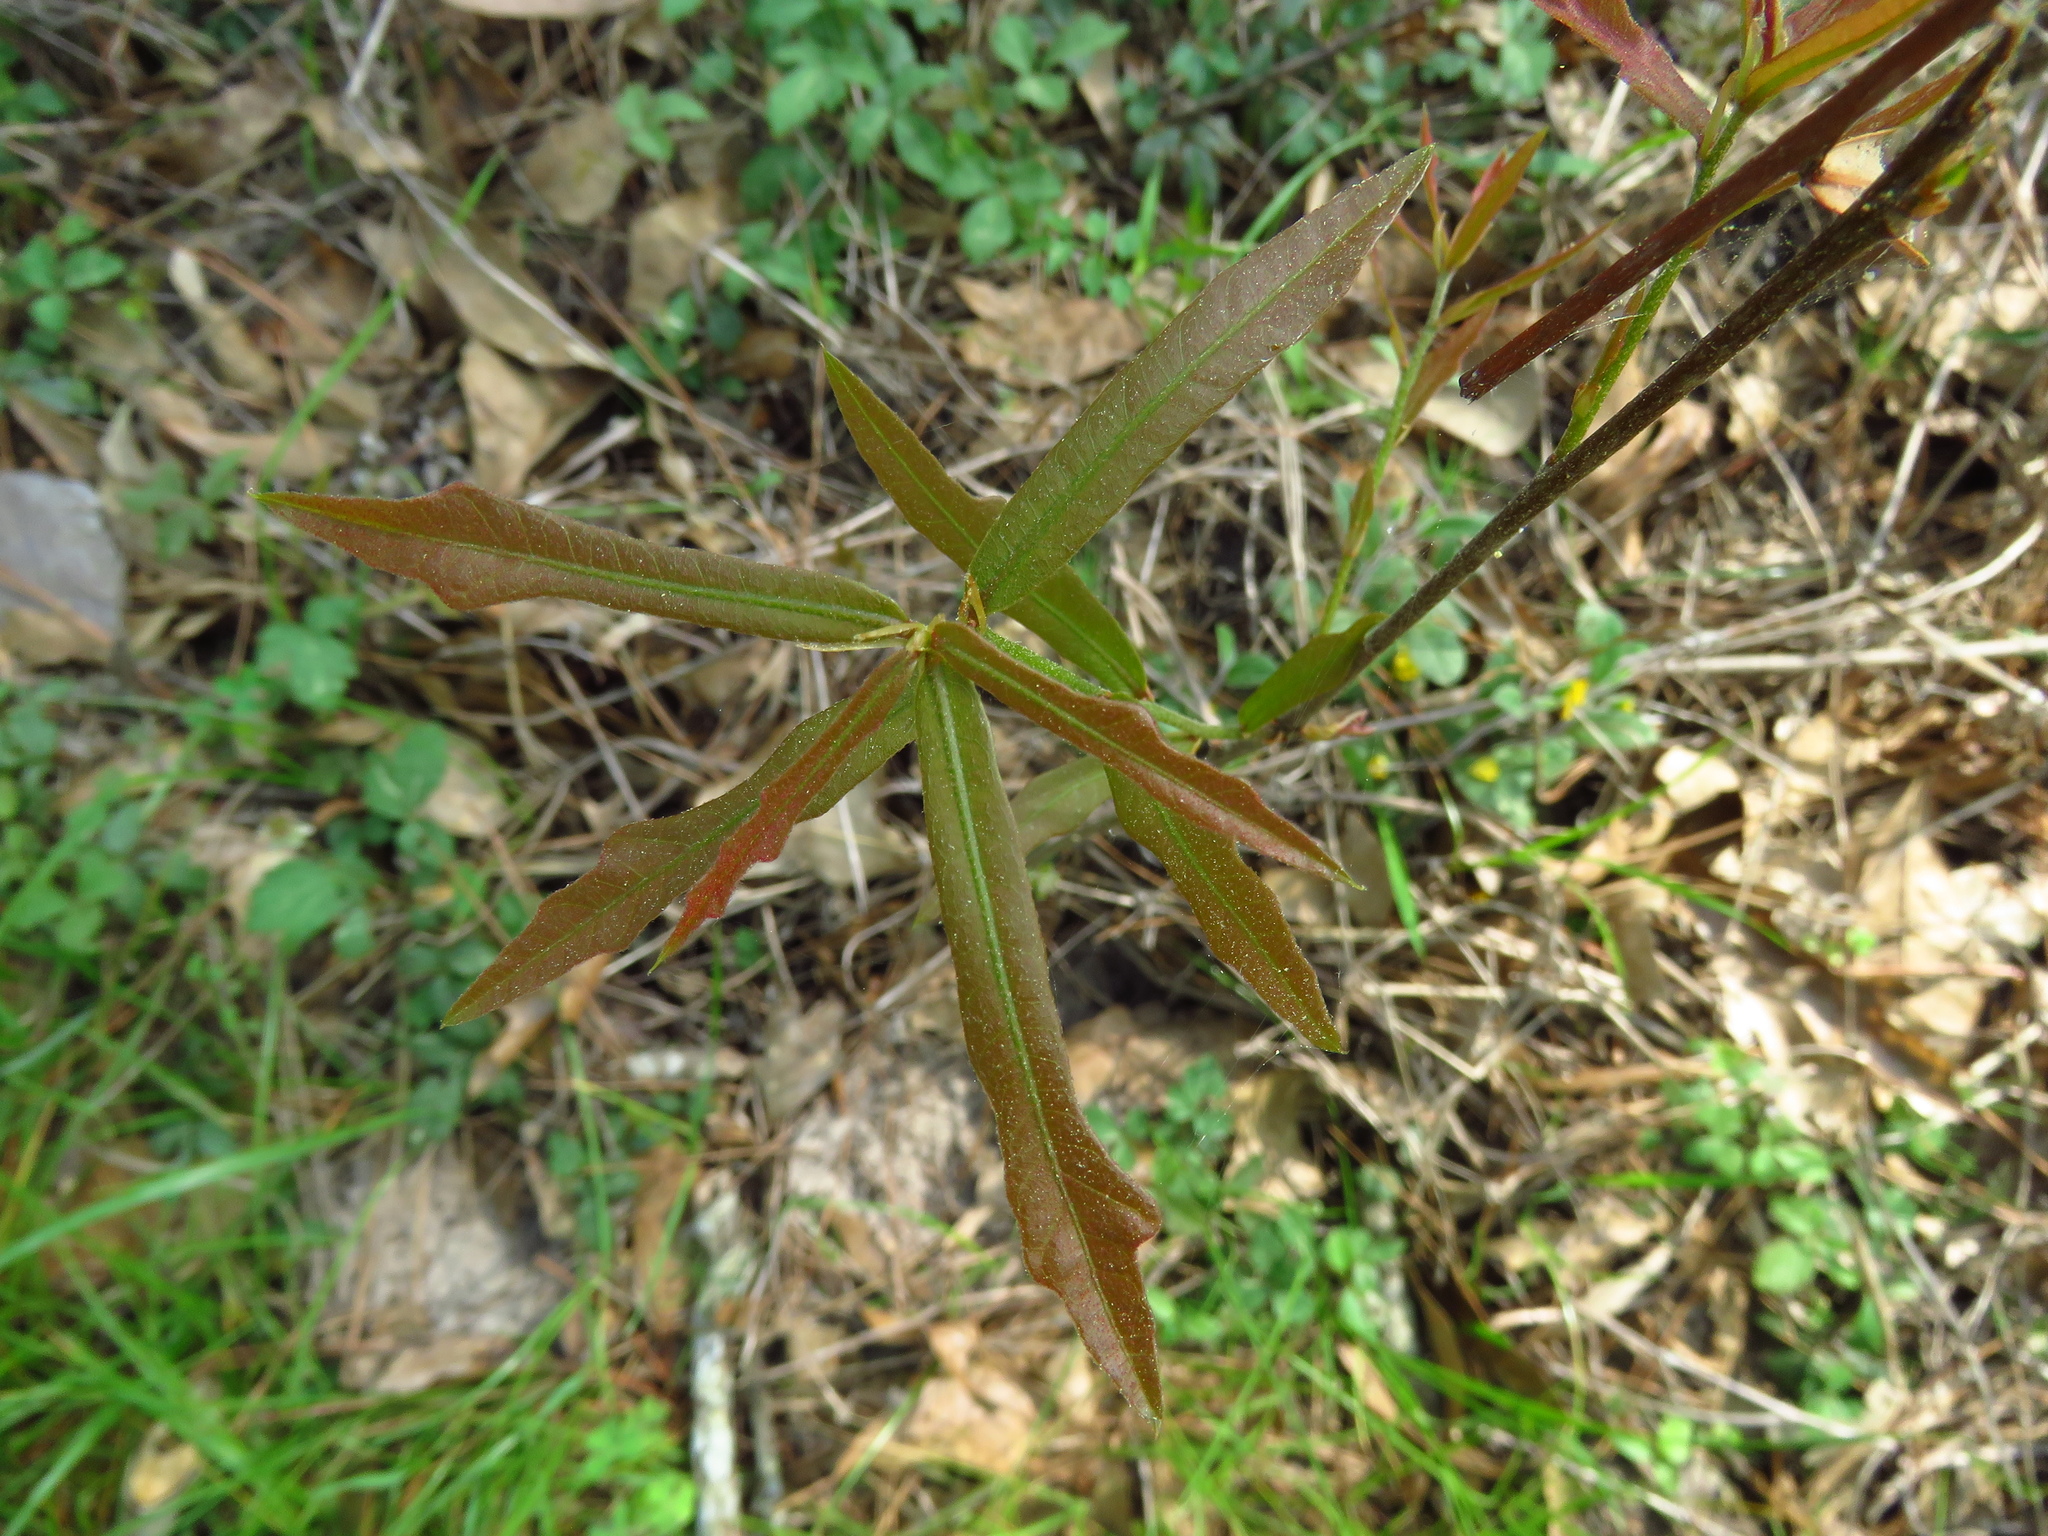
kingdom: Plantae
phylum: Tracheophyta
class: Magnoliopsida
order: Fagales
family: Fagaceae
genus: Quercus
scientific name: Quercus nigra
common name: Water oak
